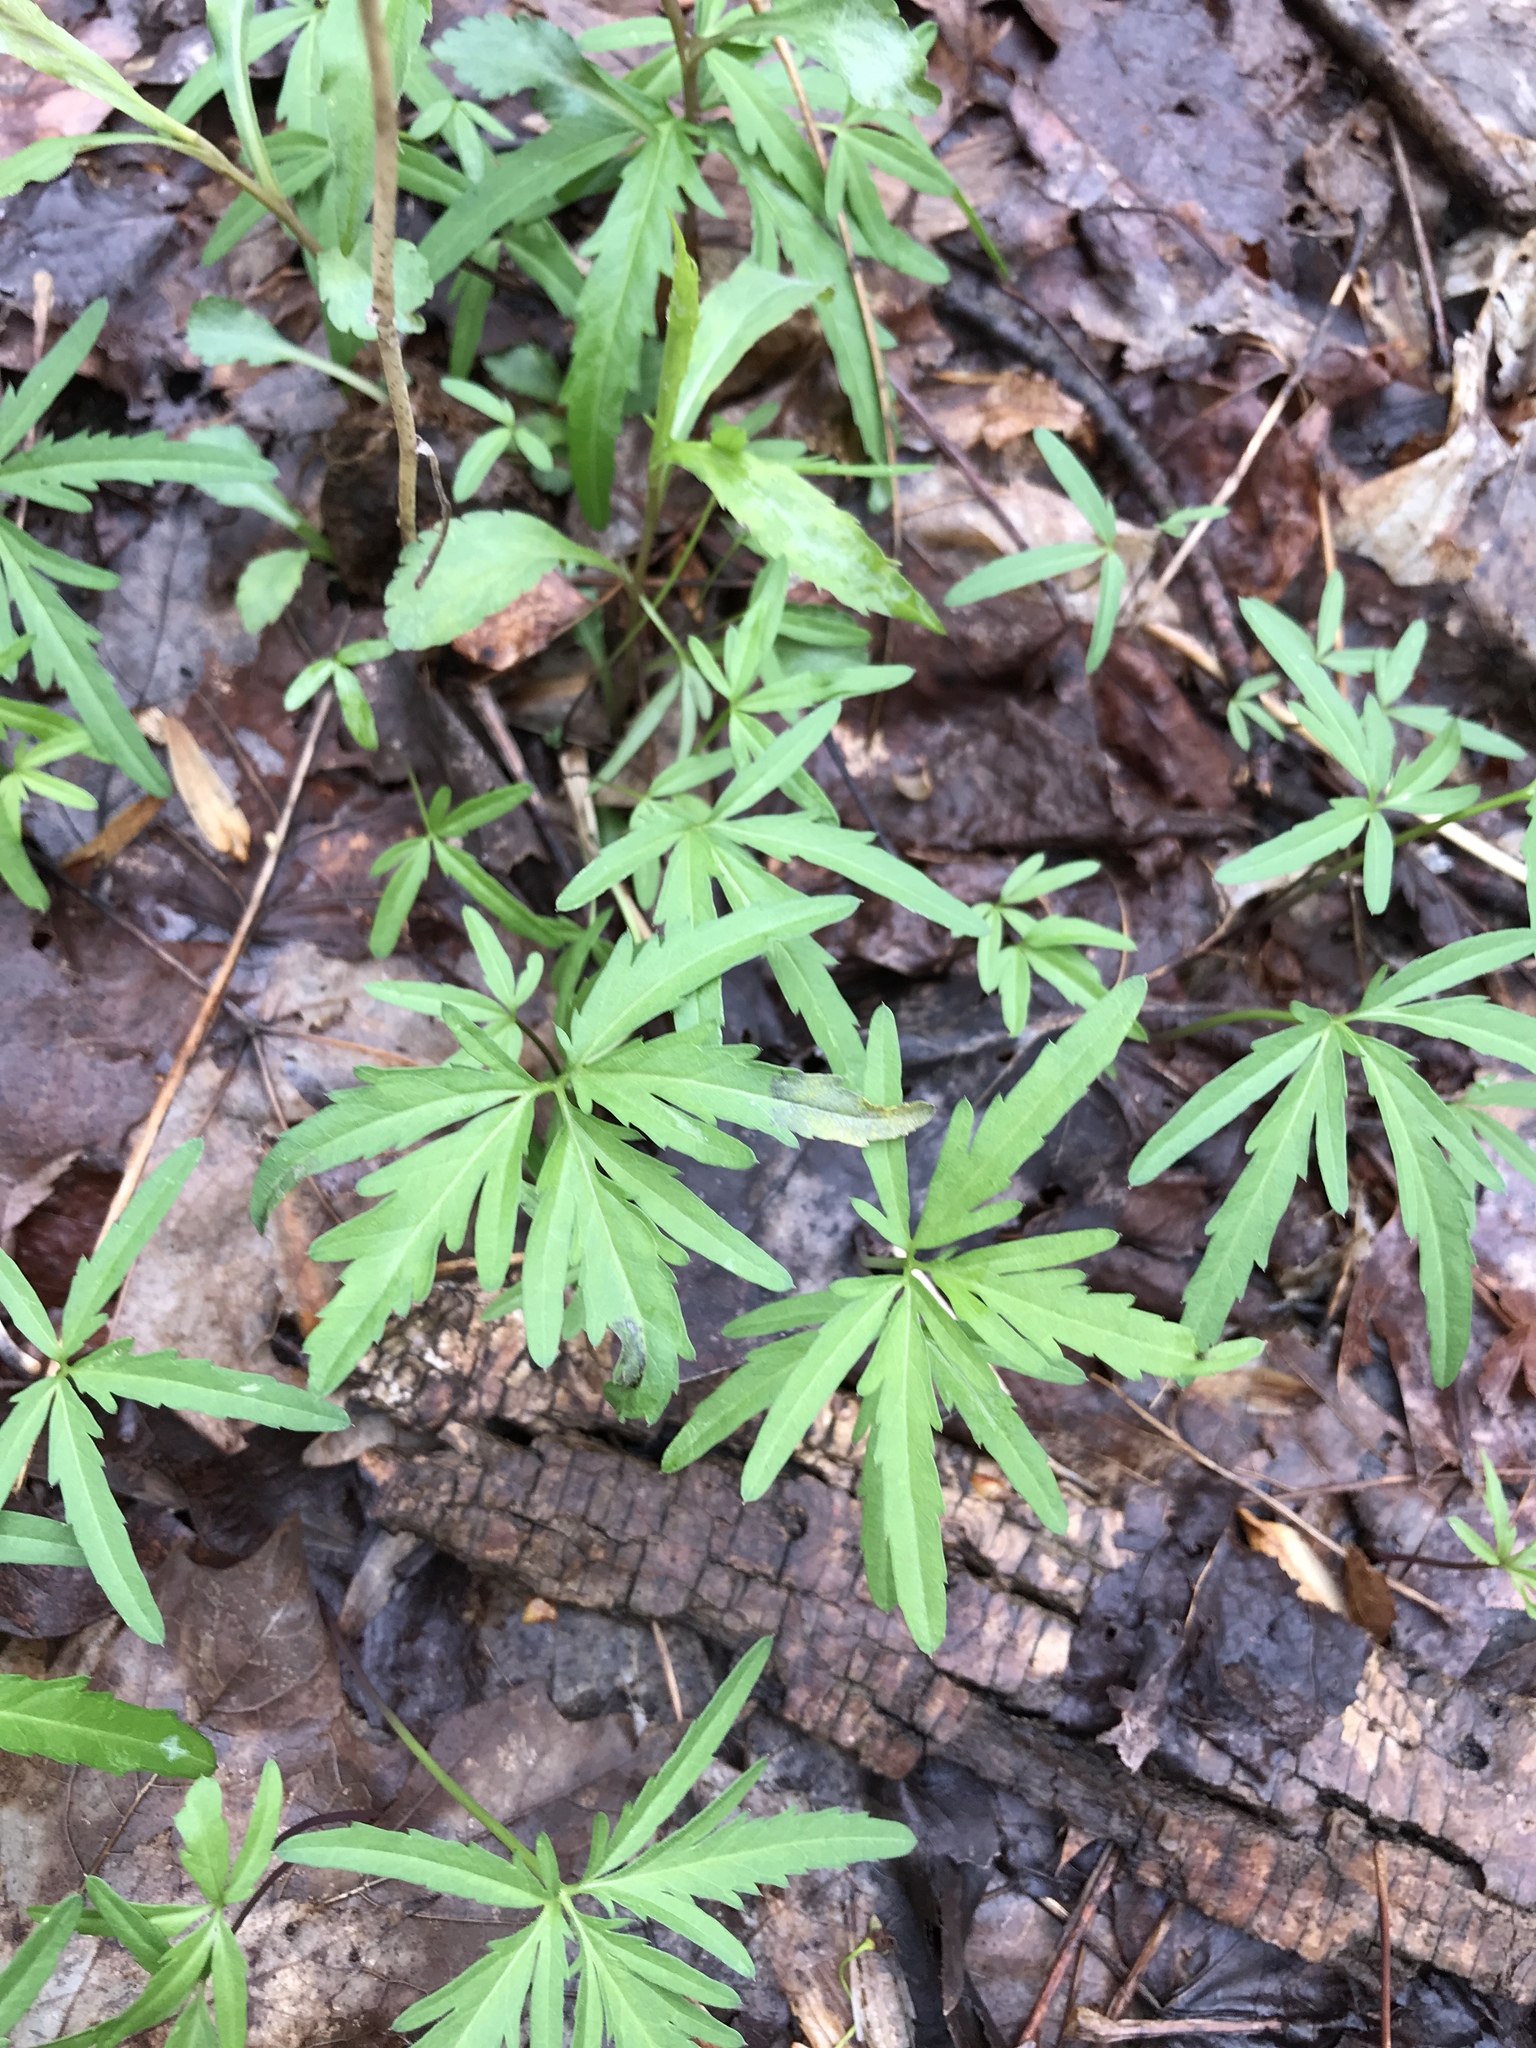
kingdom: Plantae
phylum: Tracheophyta
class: Magnoliopsida
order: Brassicales
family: Brassicaceae
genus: Cardamine
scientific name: Cardamine concatenata
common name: Cut-leaf toothcup
